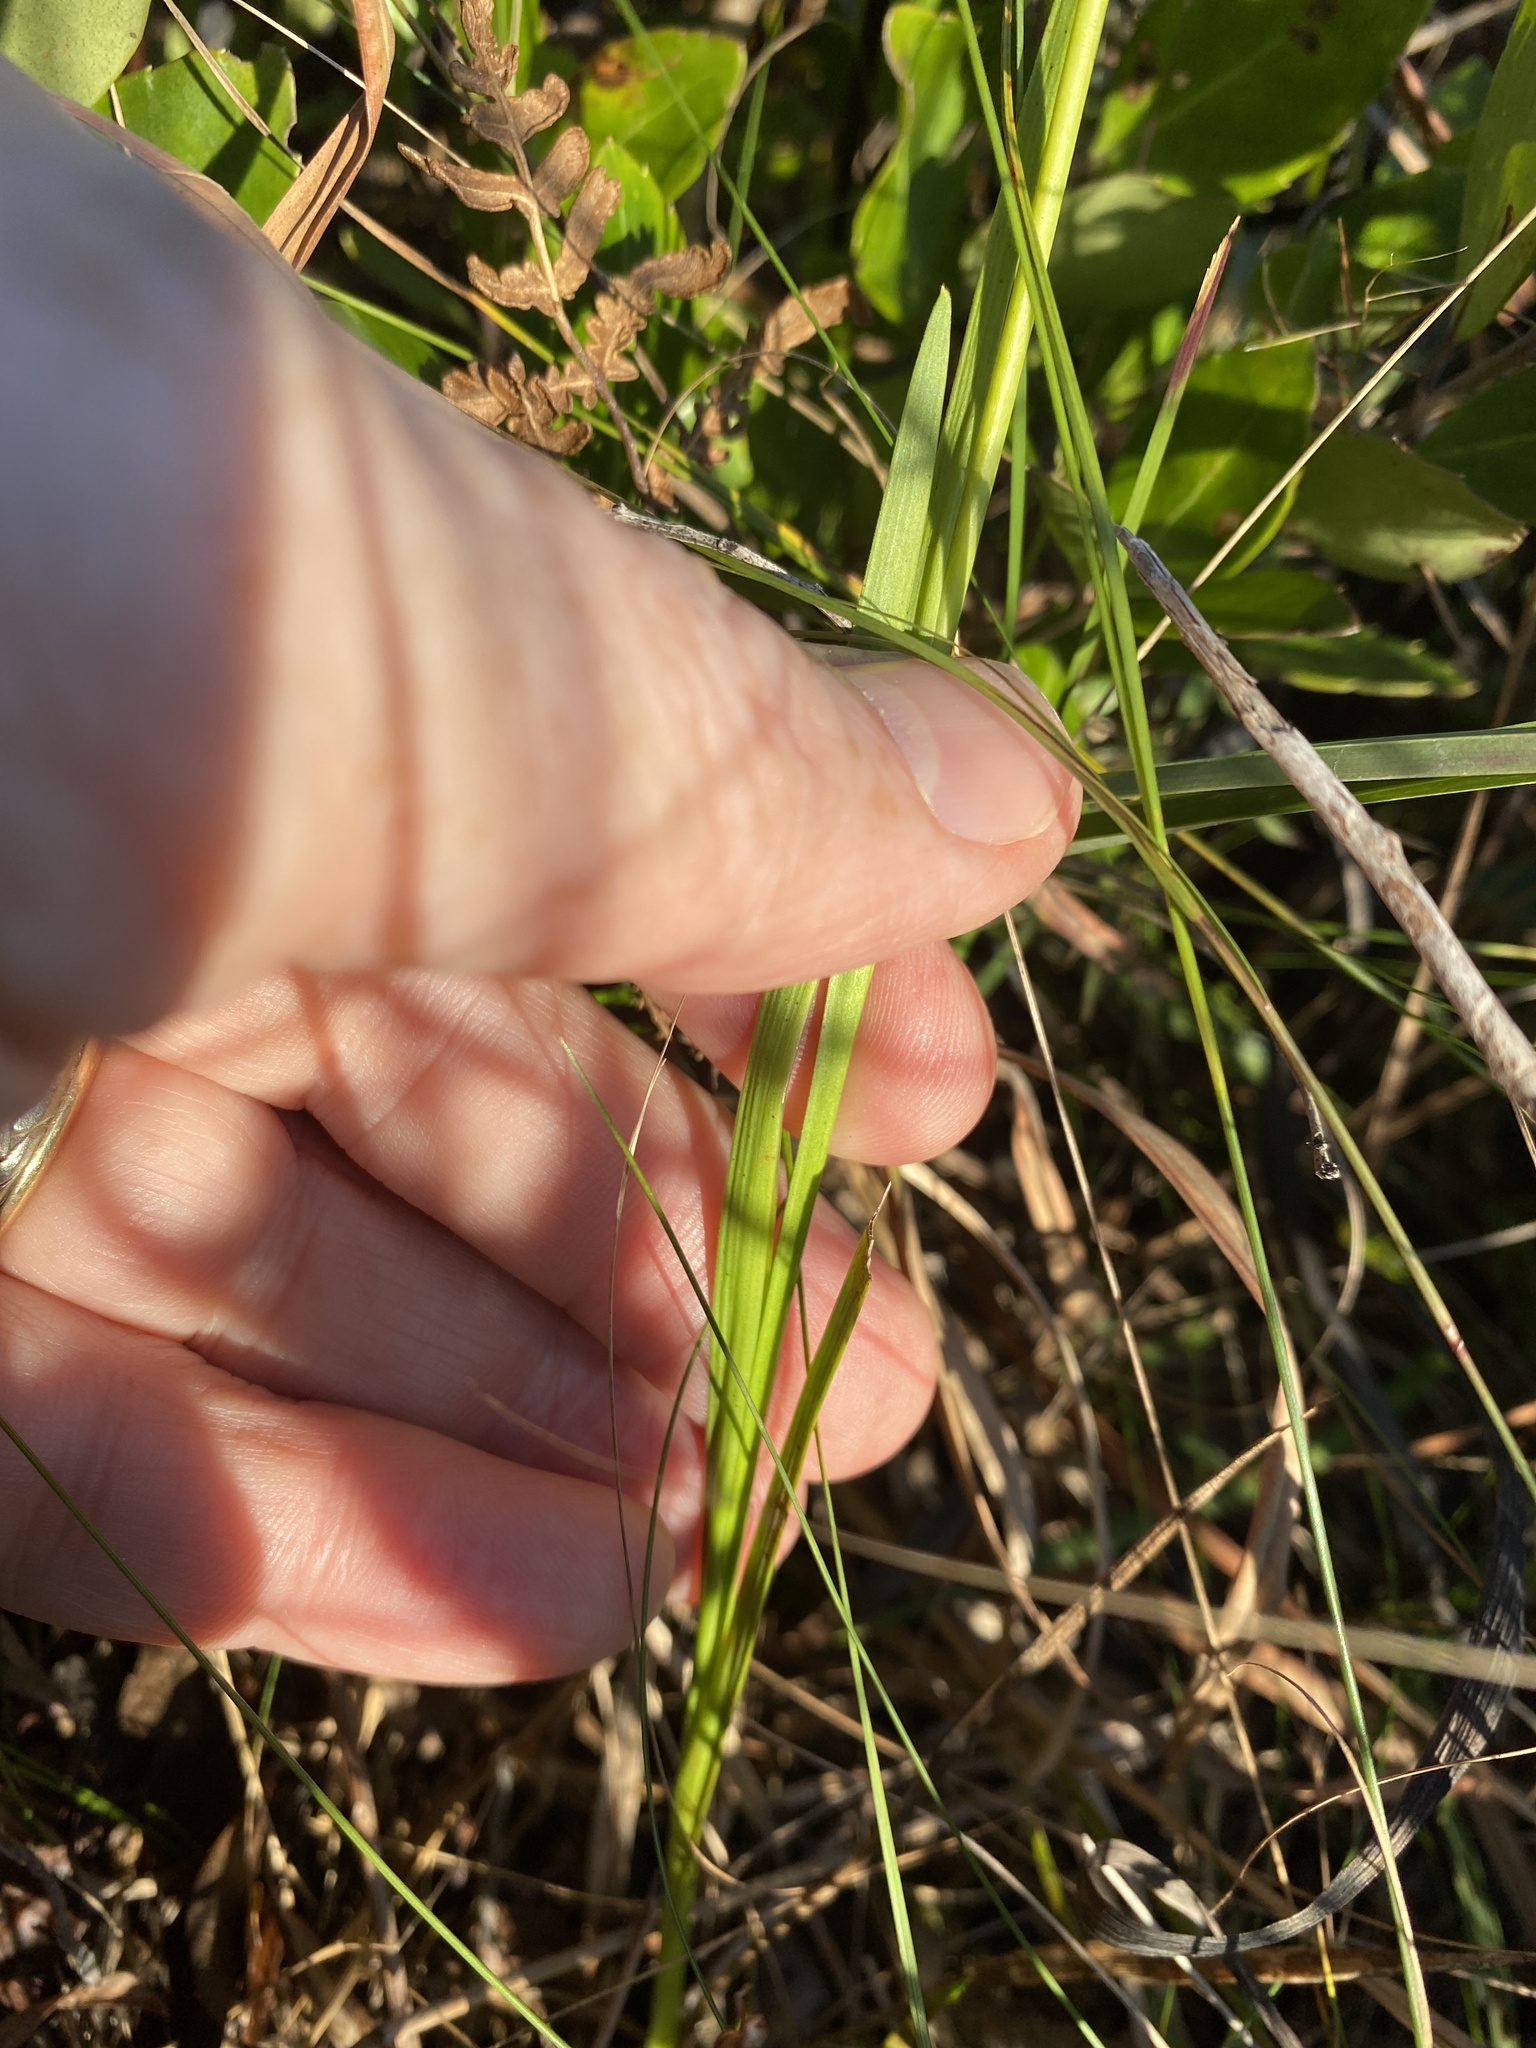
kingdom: Plantae
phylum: Tracheophyta
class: Liliopsida
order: Alismatales
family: Tofieldiaceae
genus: Tofieldia
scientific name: Tofieldia glabra
